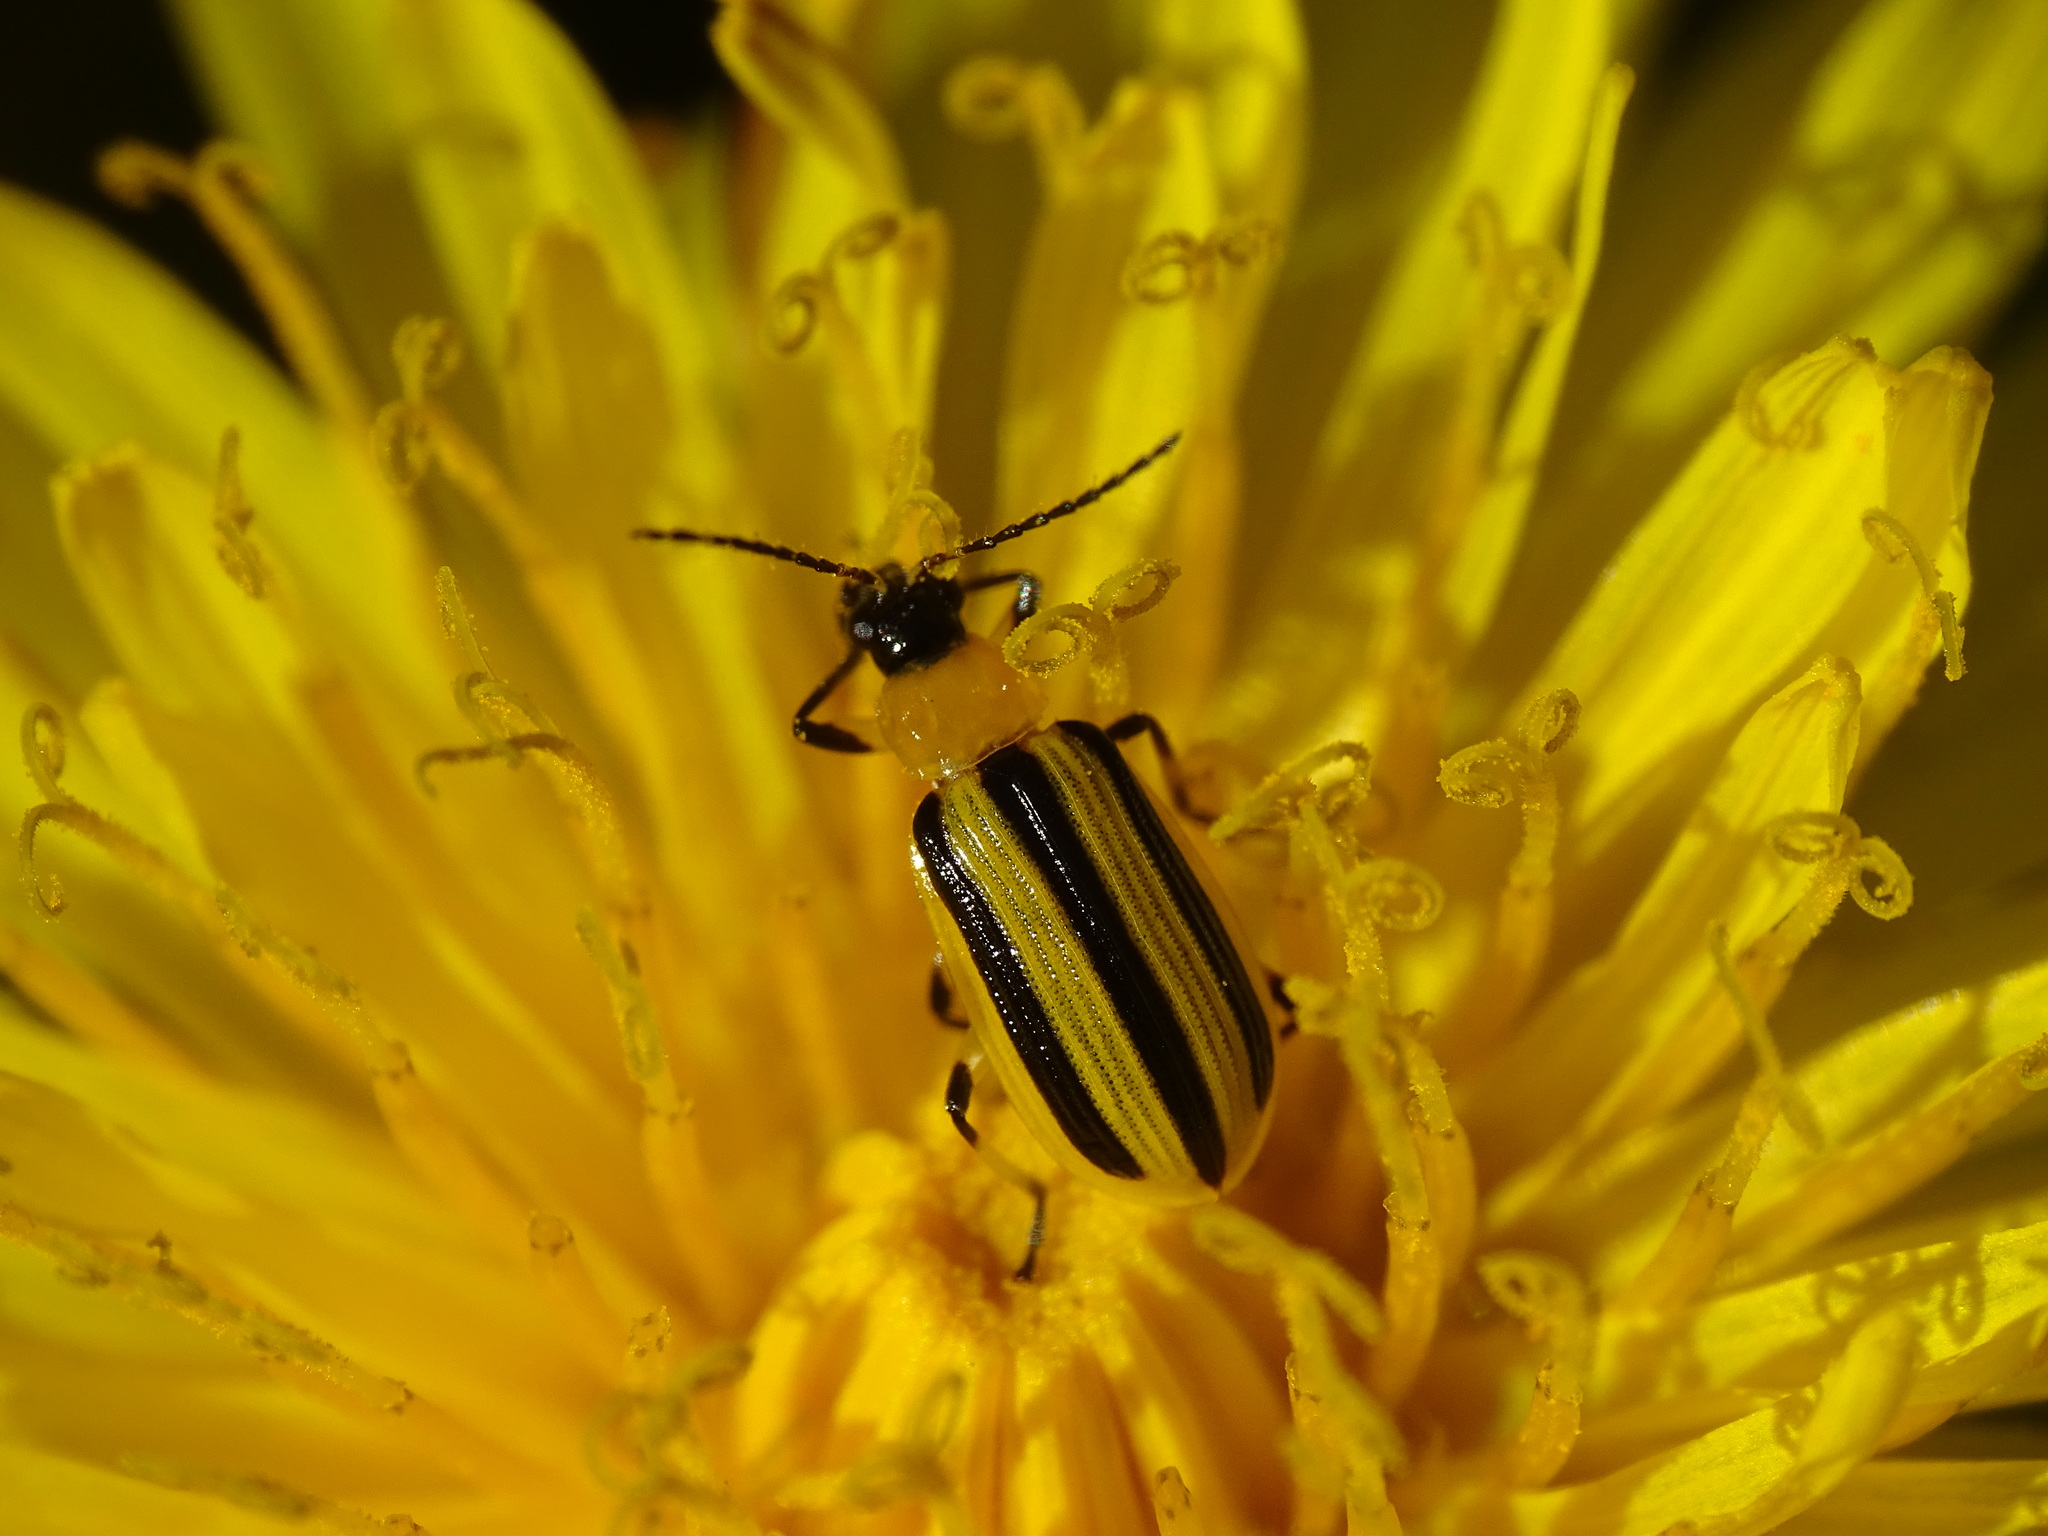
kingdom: Animalia
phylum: Arthropoda
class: Insecta
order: Coleoptera
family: Chrysomelidae
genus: Acalymma
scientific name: Acalymma vittatum
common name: Striped cucumber beetle
